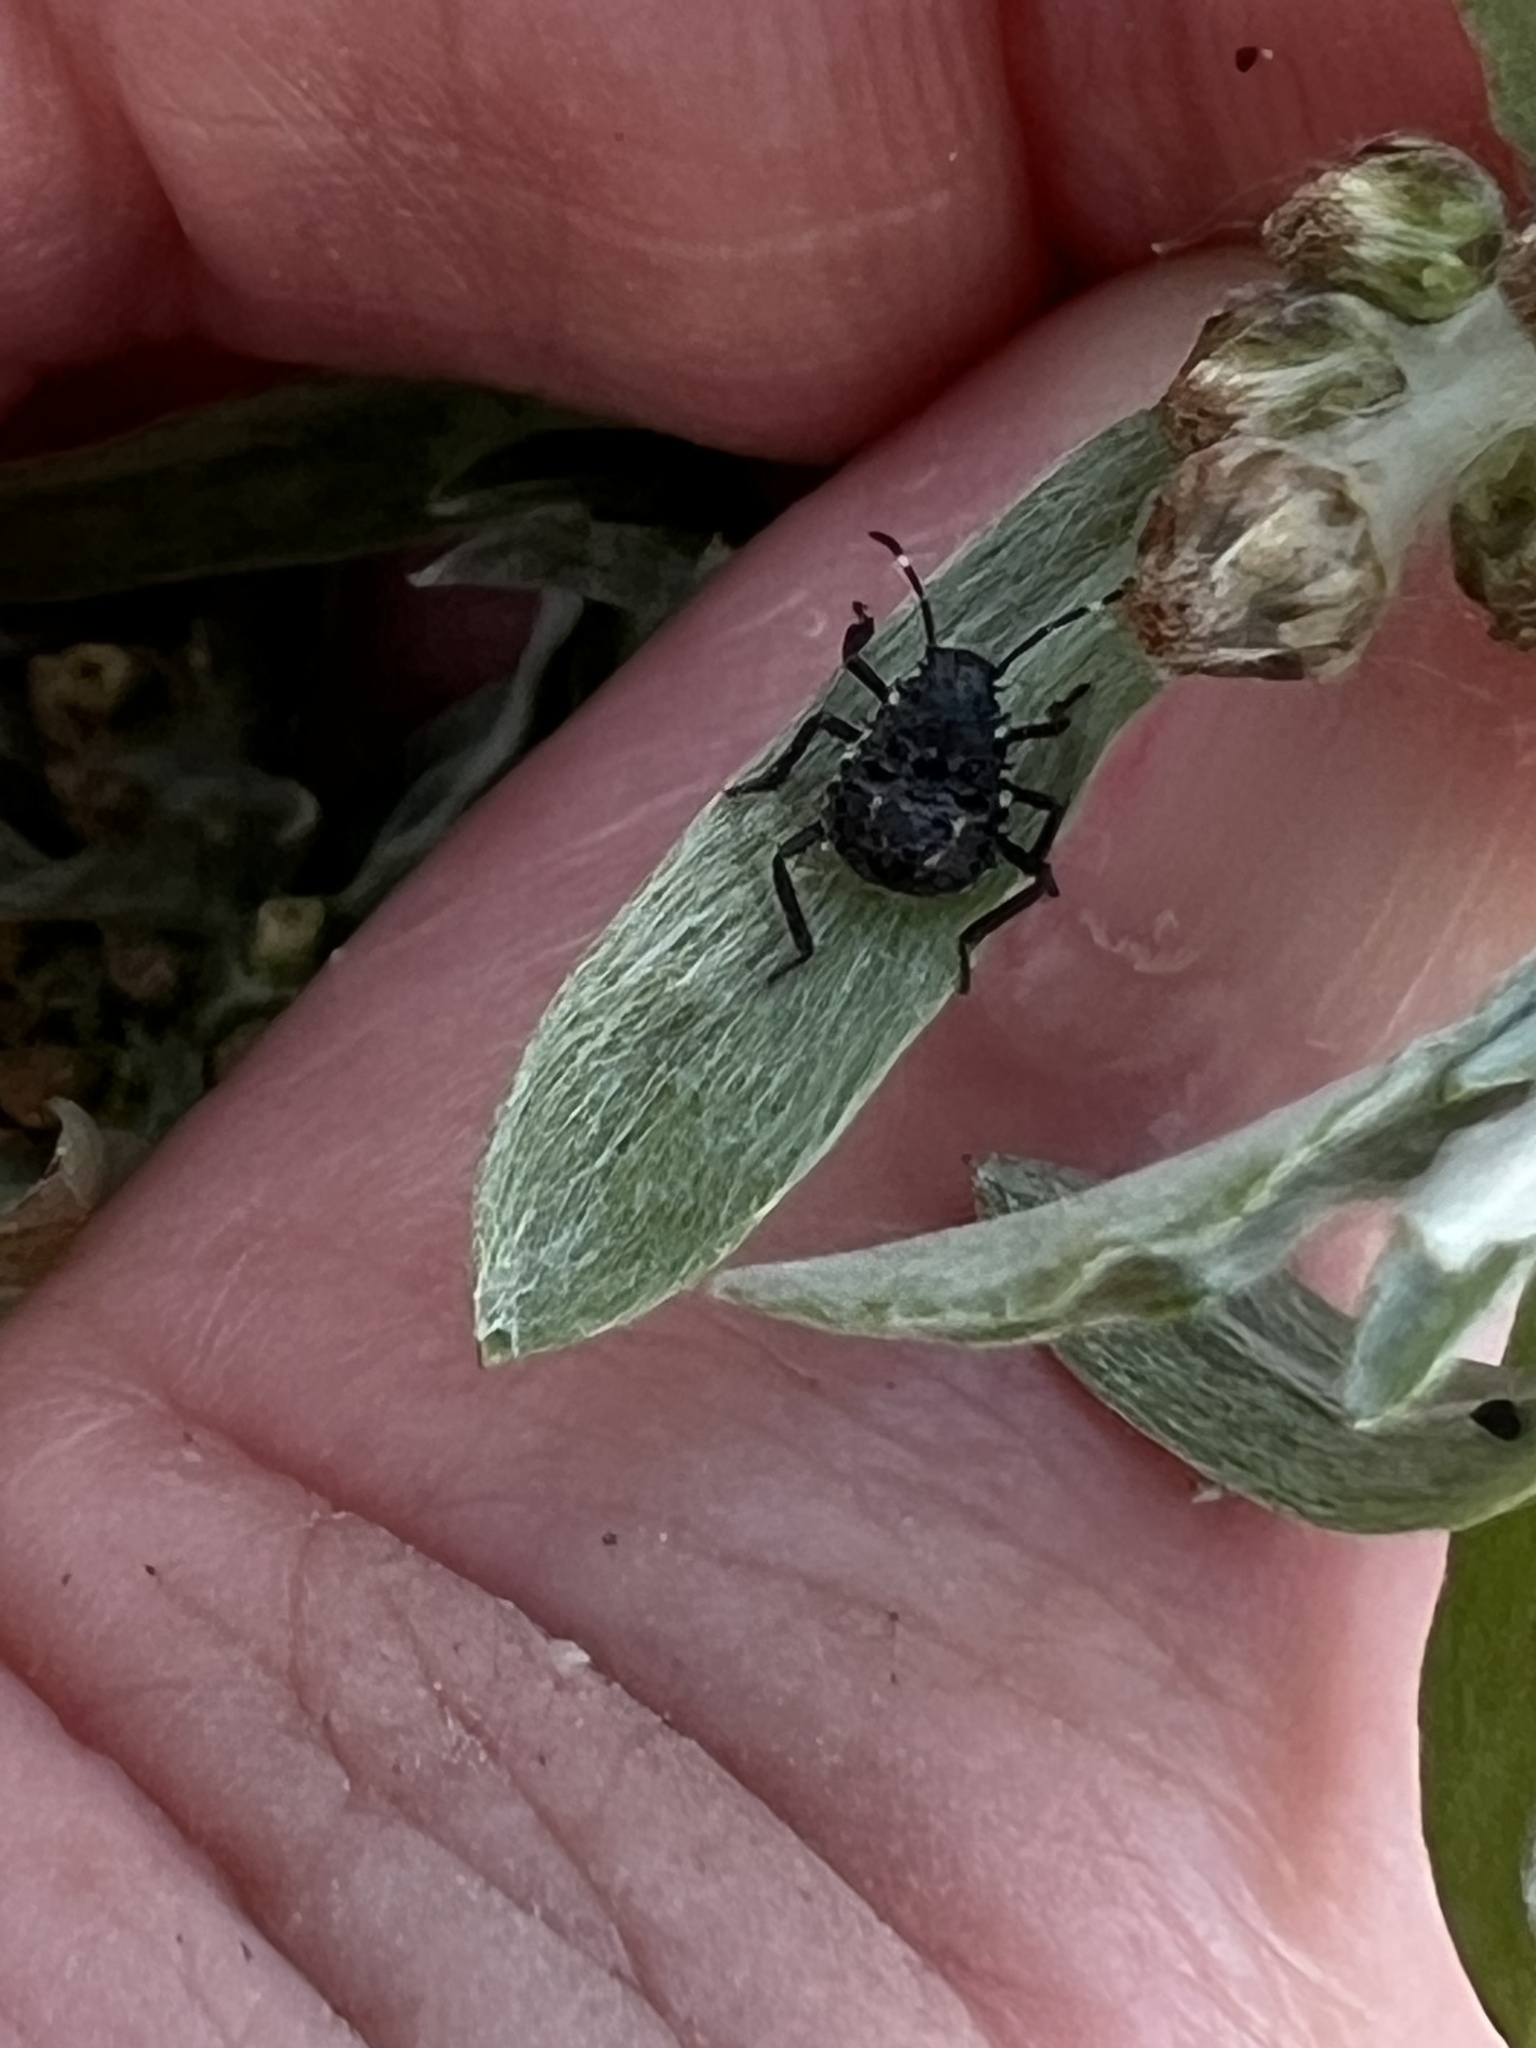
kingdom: Animalia
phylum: Arthropoda
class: Insecta
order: Hemiptera
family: Pentatomidae
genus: Halyomorpha
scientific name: Halyomorpha halys
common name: Brown marmorated stink bug
